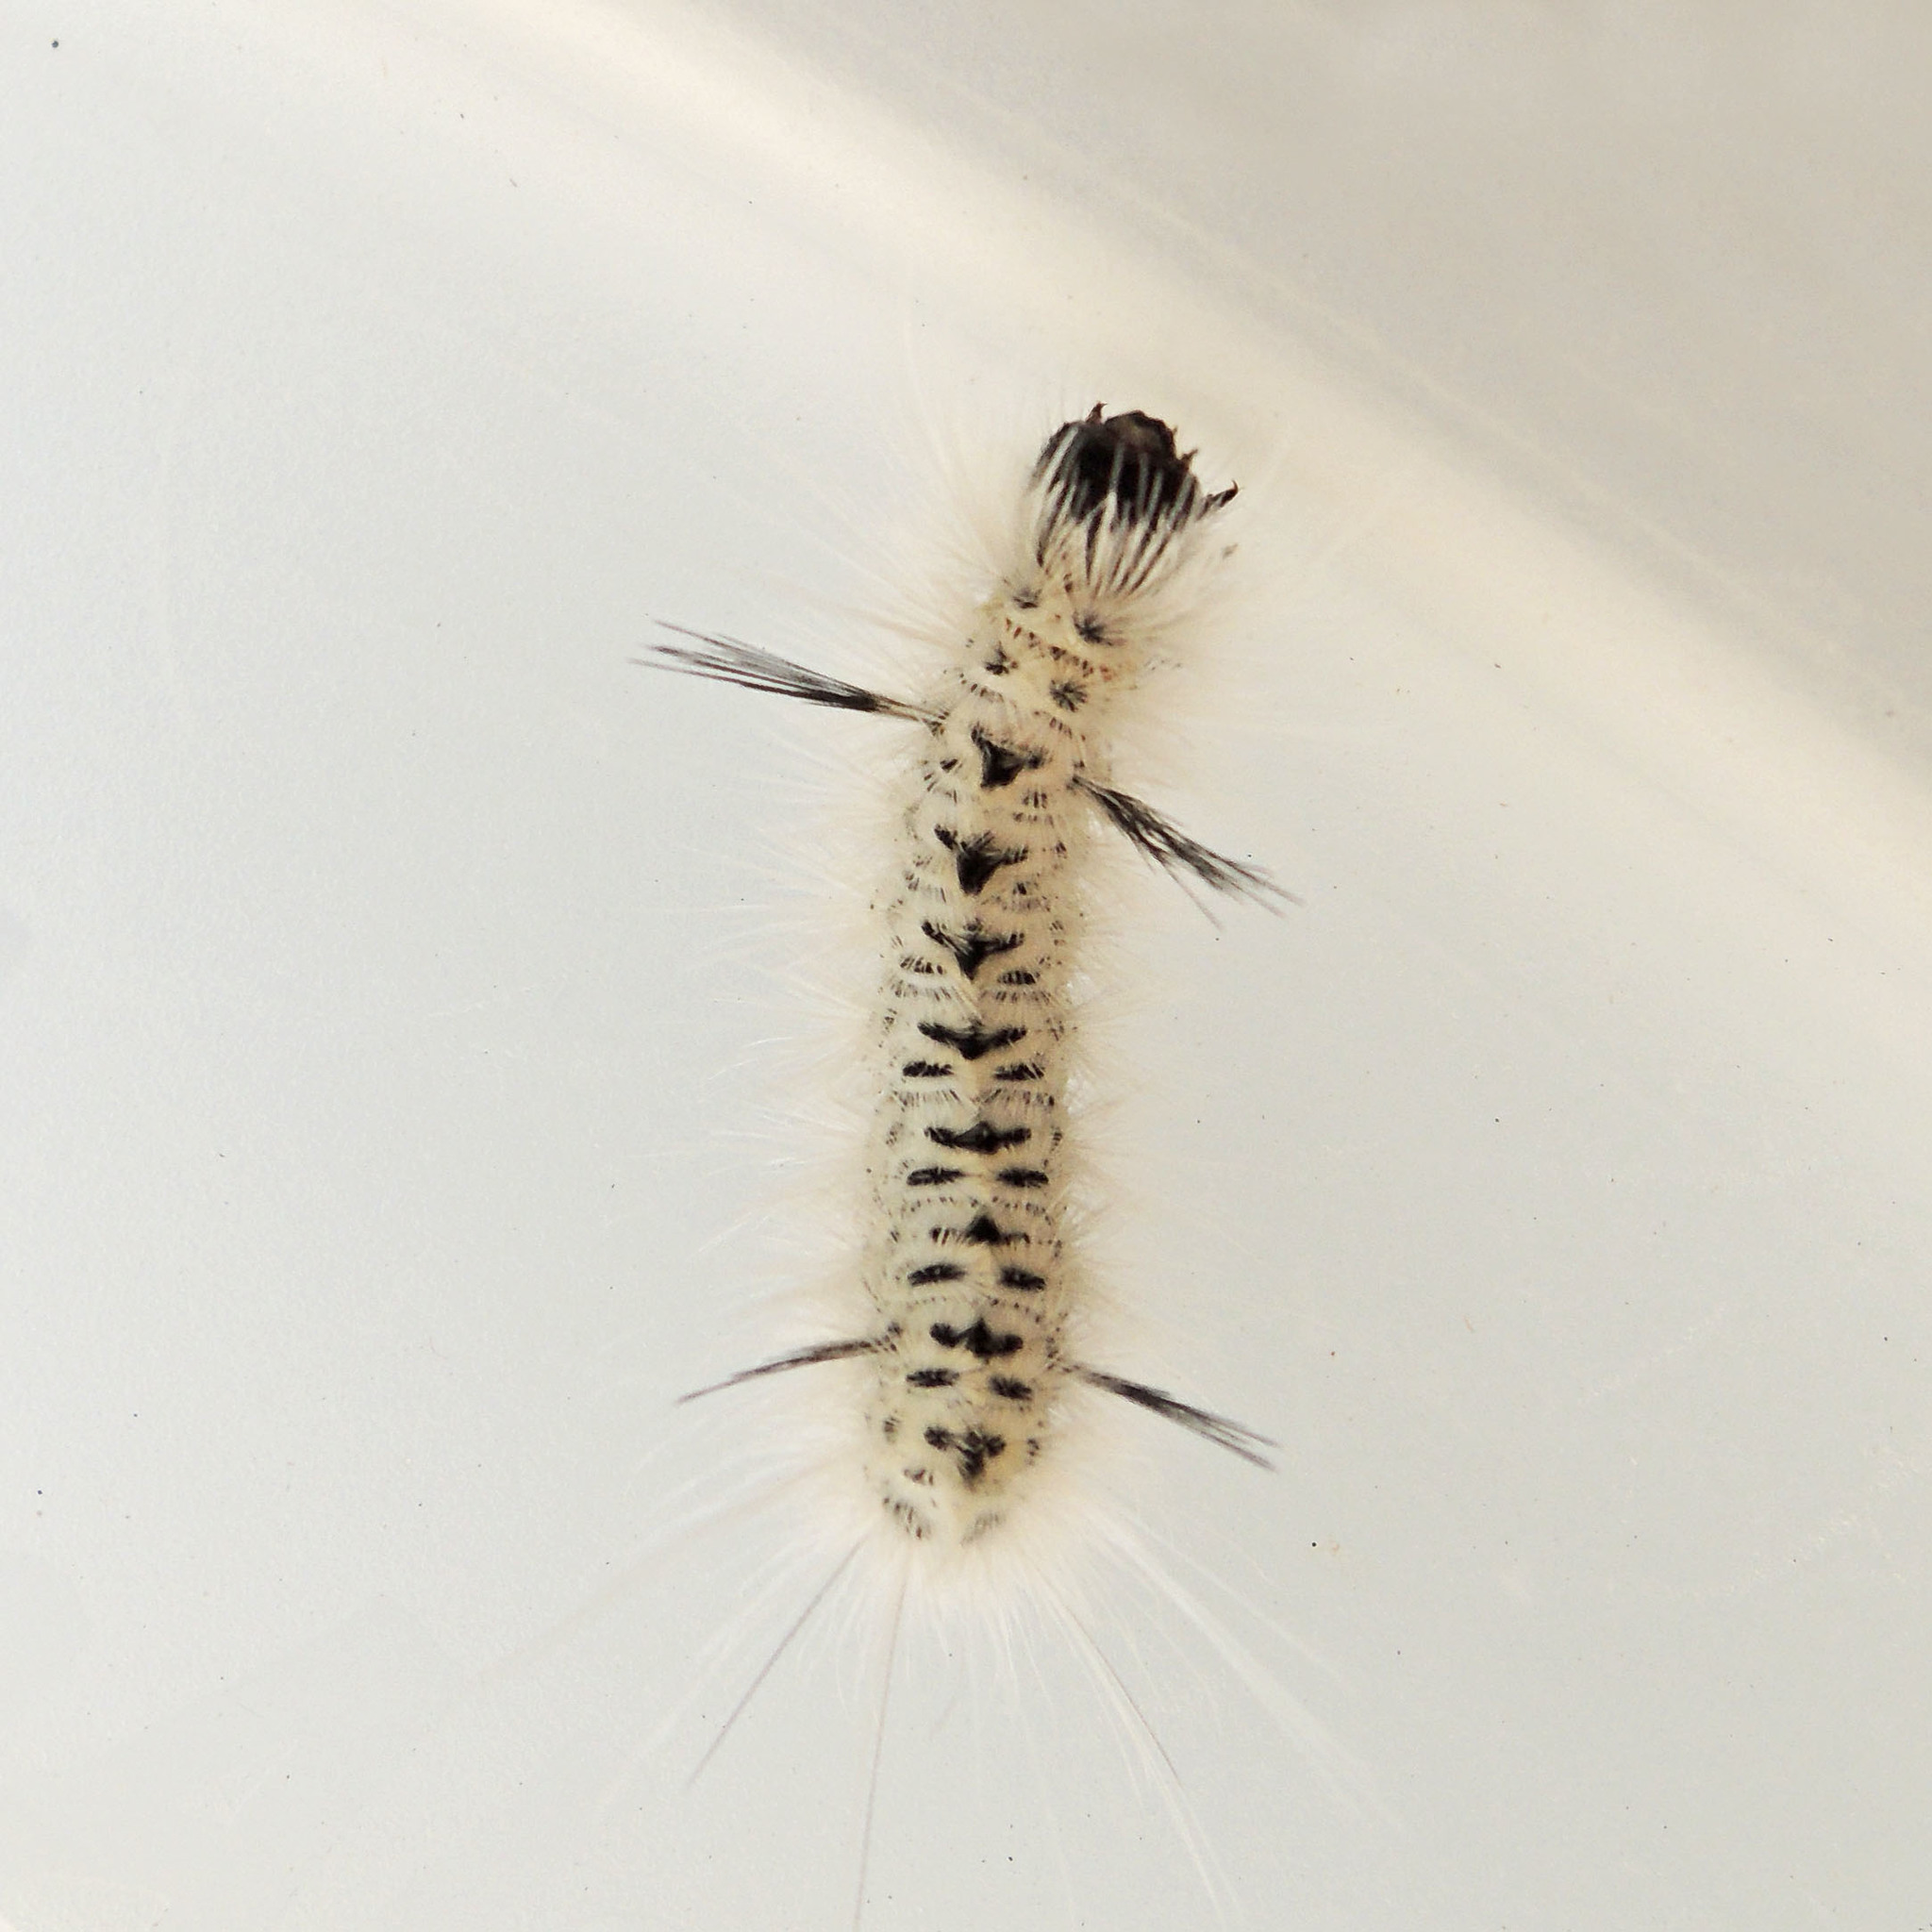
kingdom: Animalia
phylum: Arthropoda
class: Insecta
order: Lepidoptera
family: Erebidae
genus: Lophocampa
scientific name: Lophocampa caryae
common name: Hickory tussock moth
